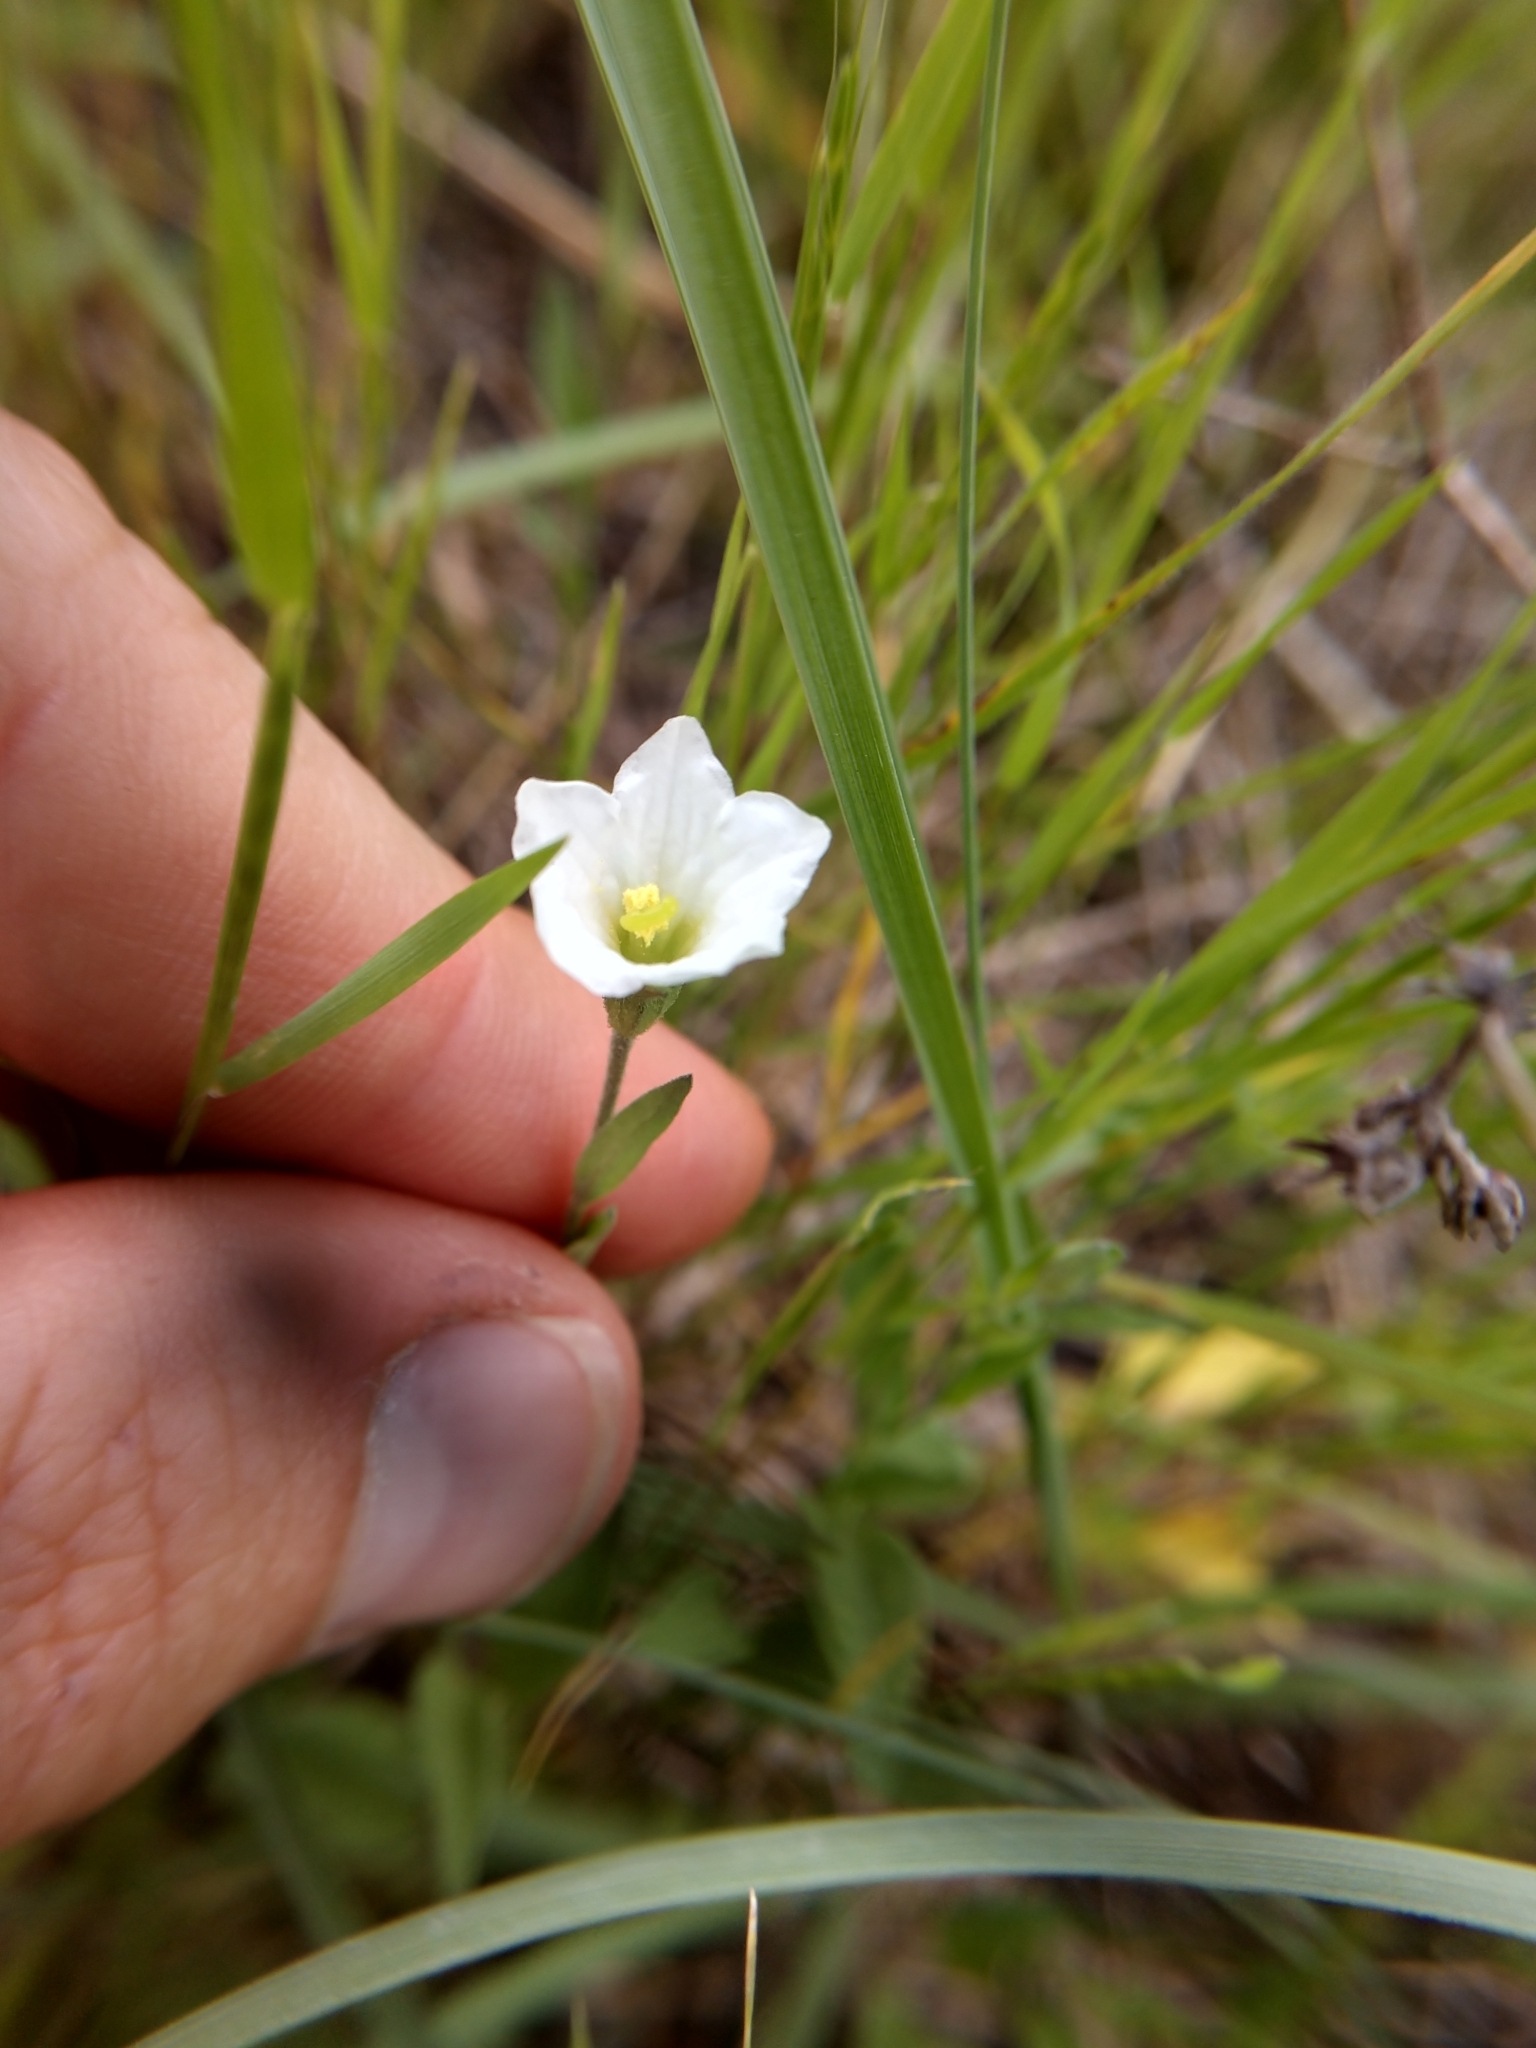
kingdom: Plantae
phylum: Tracheophyta
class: Magnoliopsida
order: Solanales
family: Solanaceae
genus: Salpiglossis
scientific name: Salpiglossis erecta
